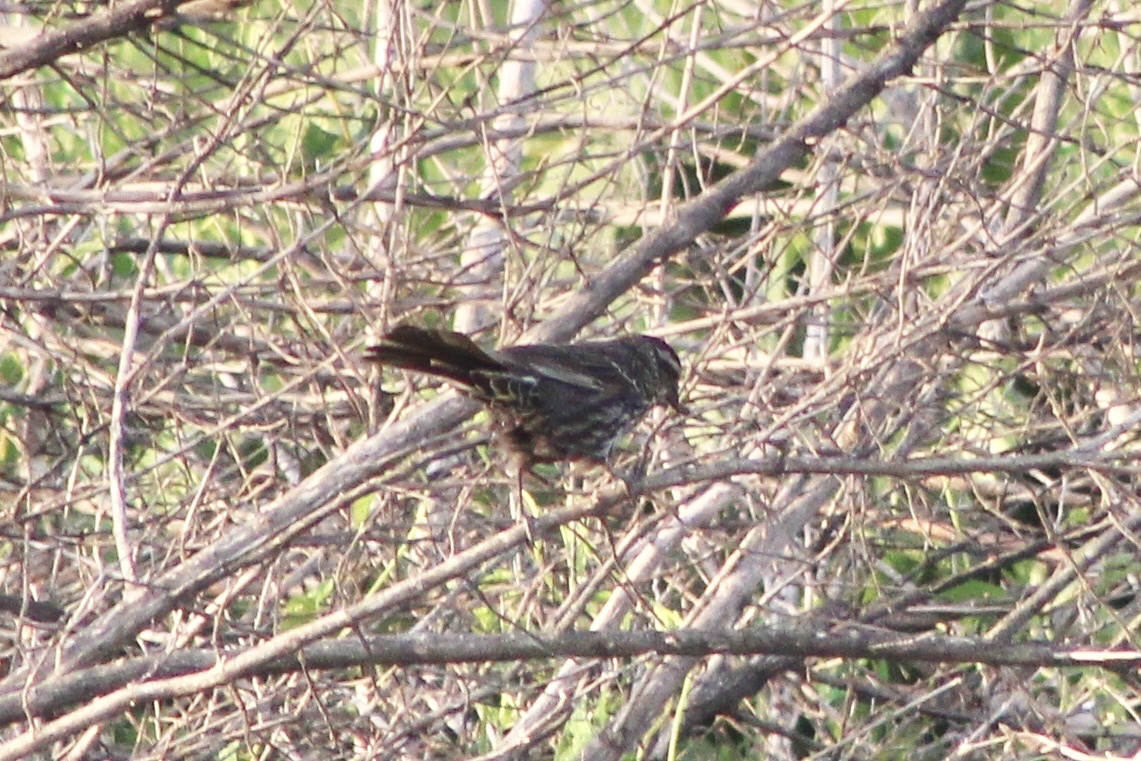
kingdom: Animalia
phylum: Chordata
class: Aves
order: Passeriformes
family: Icteridae
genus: Agelaius
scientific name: Agelaius phoeniceus
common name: Red-winged blackbird
